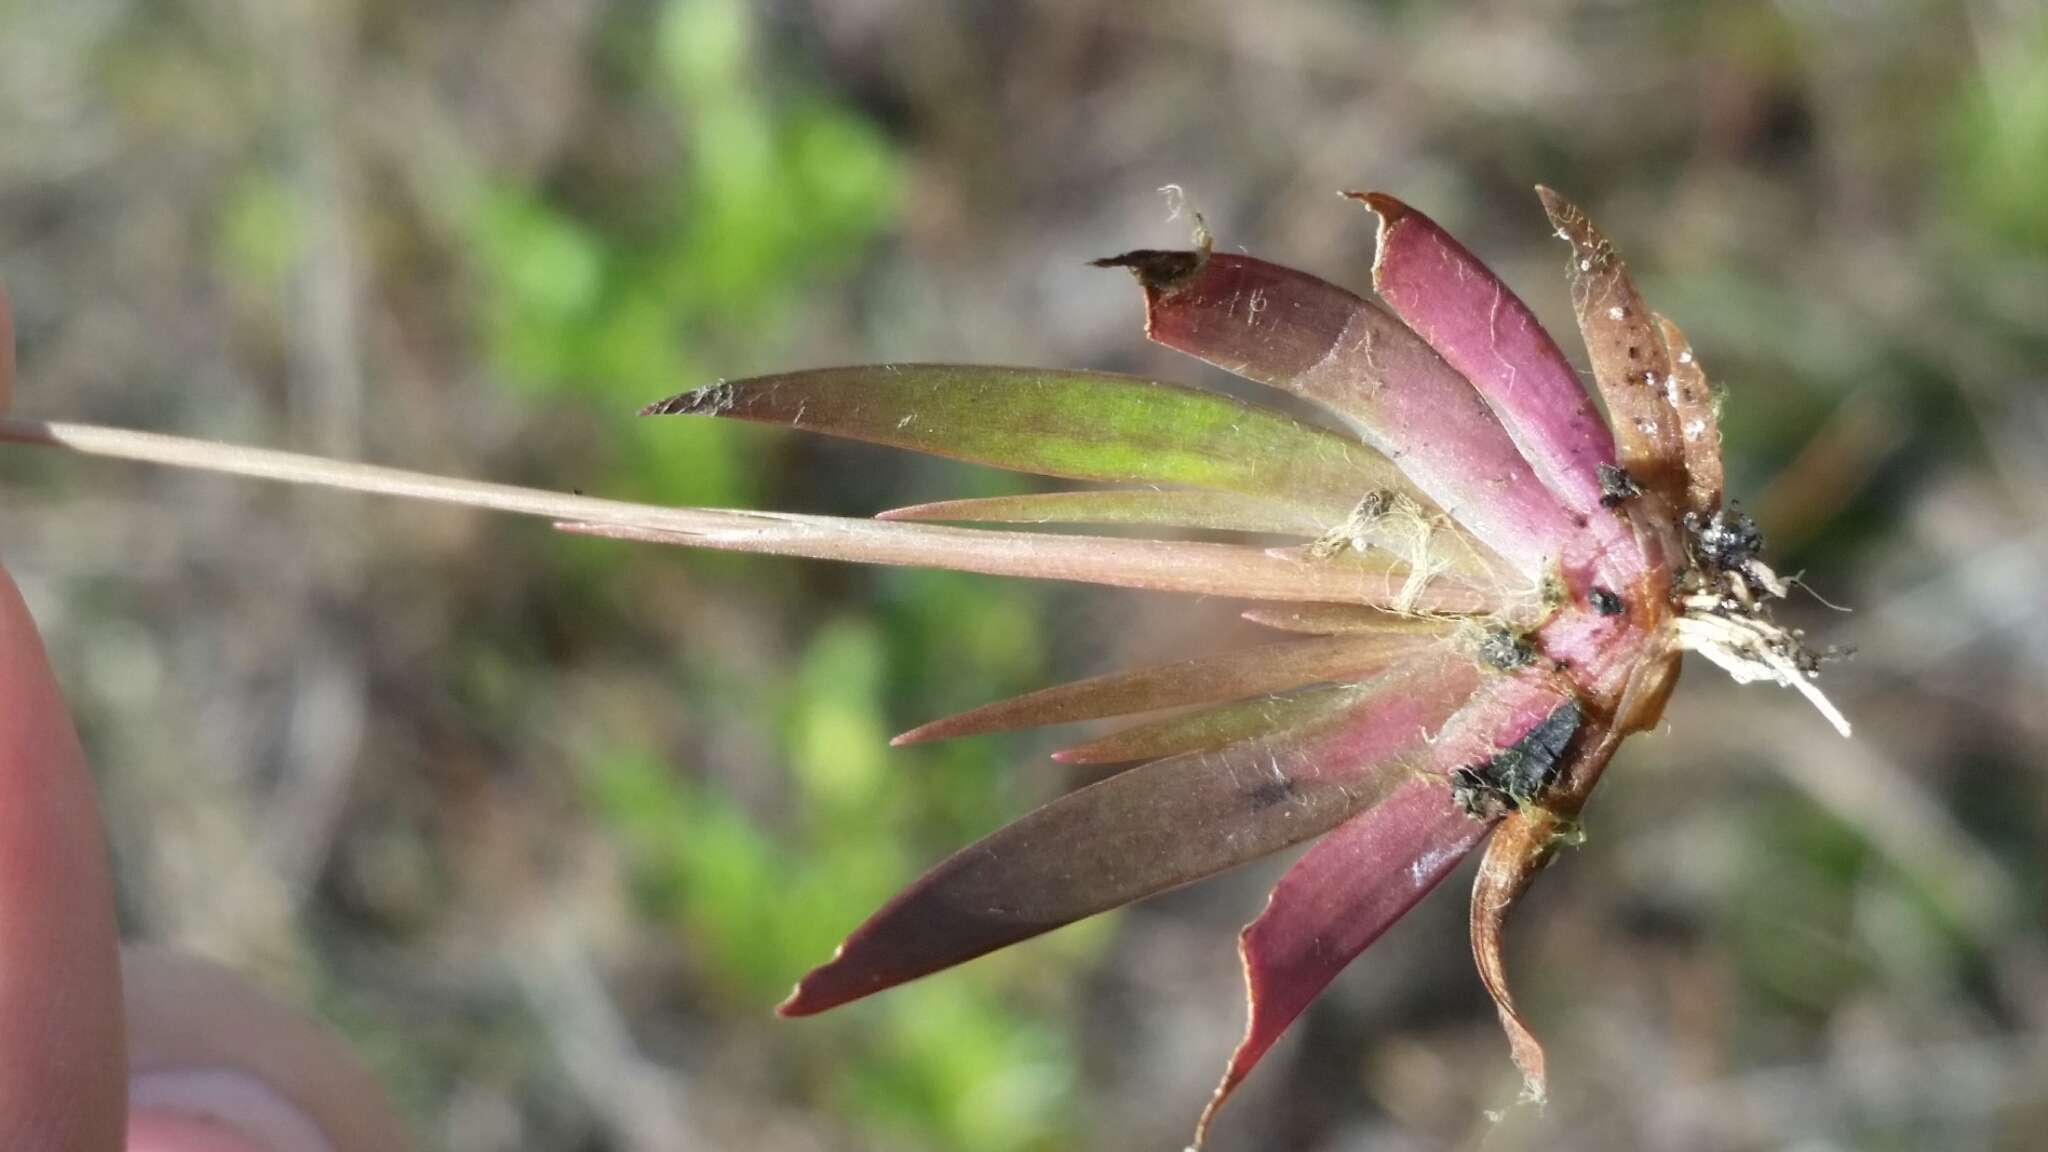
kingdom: Plantae
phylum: Tracheophyta
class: Liliopsida
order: Poales
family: Xyridaceae
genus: Xyris
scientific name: Xyris flabelliformis
